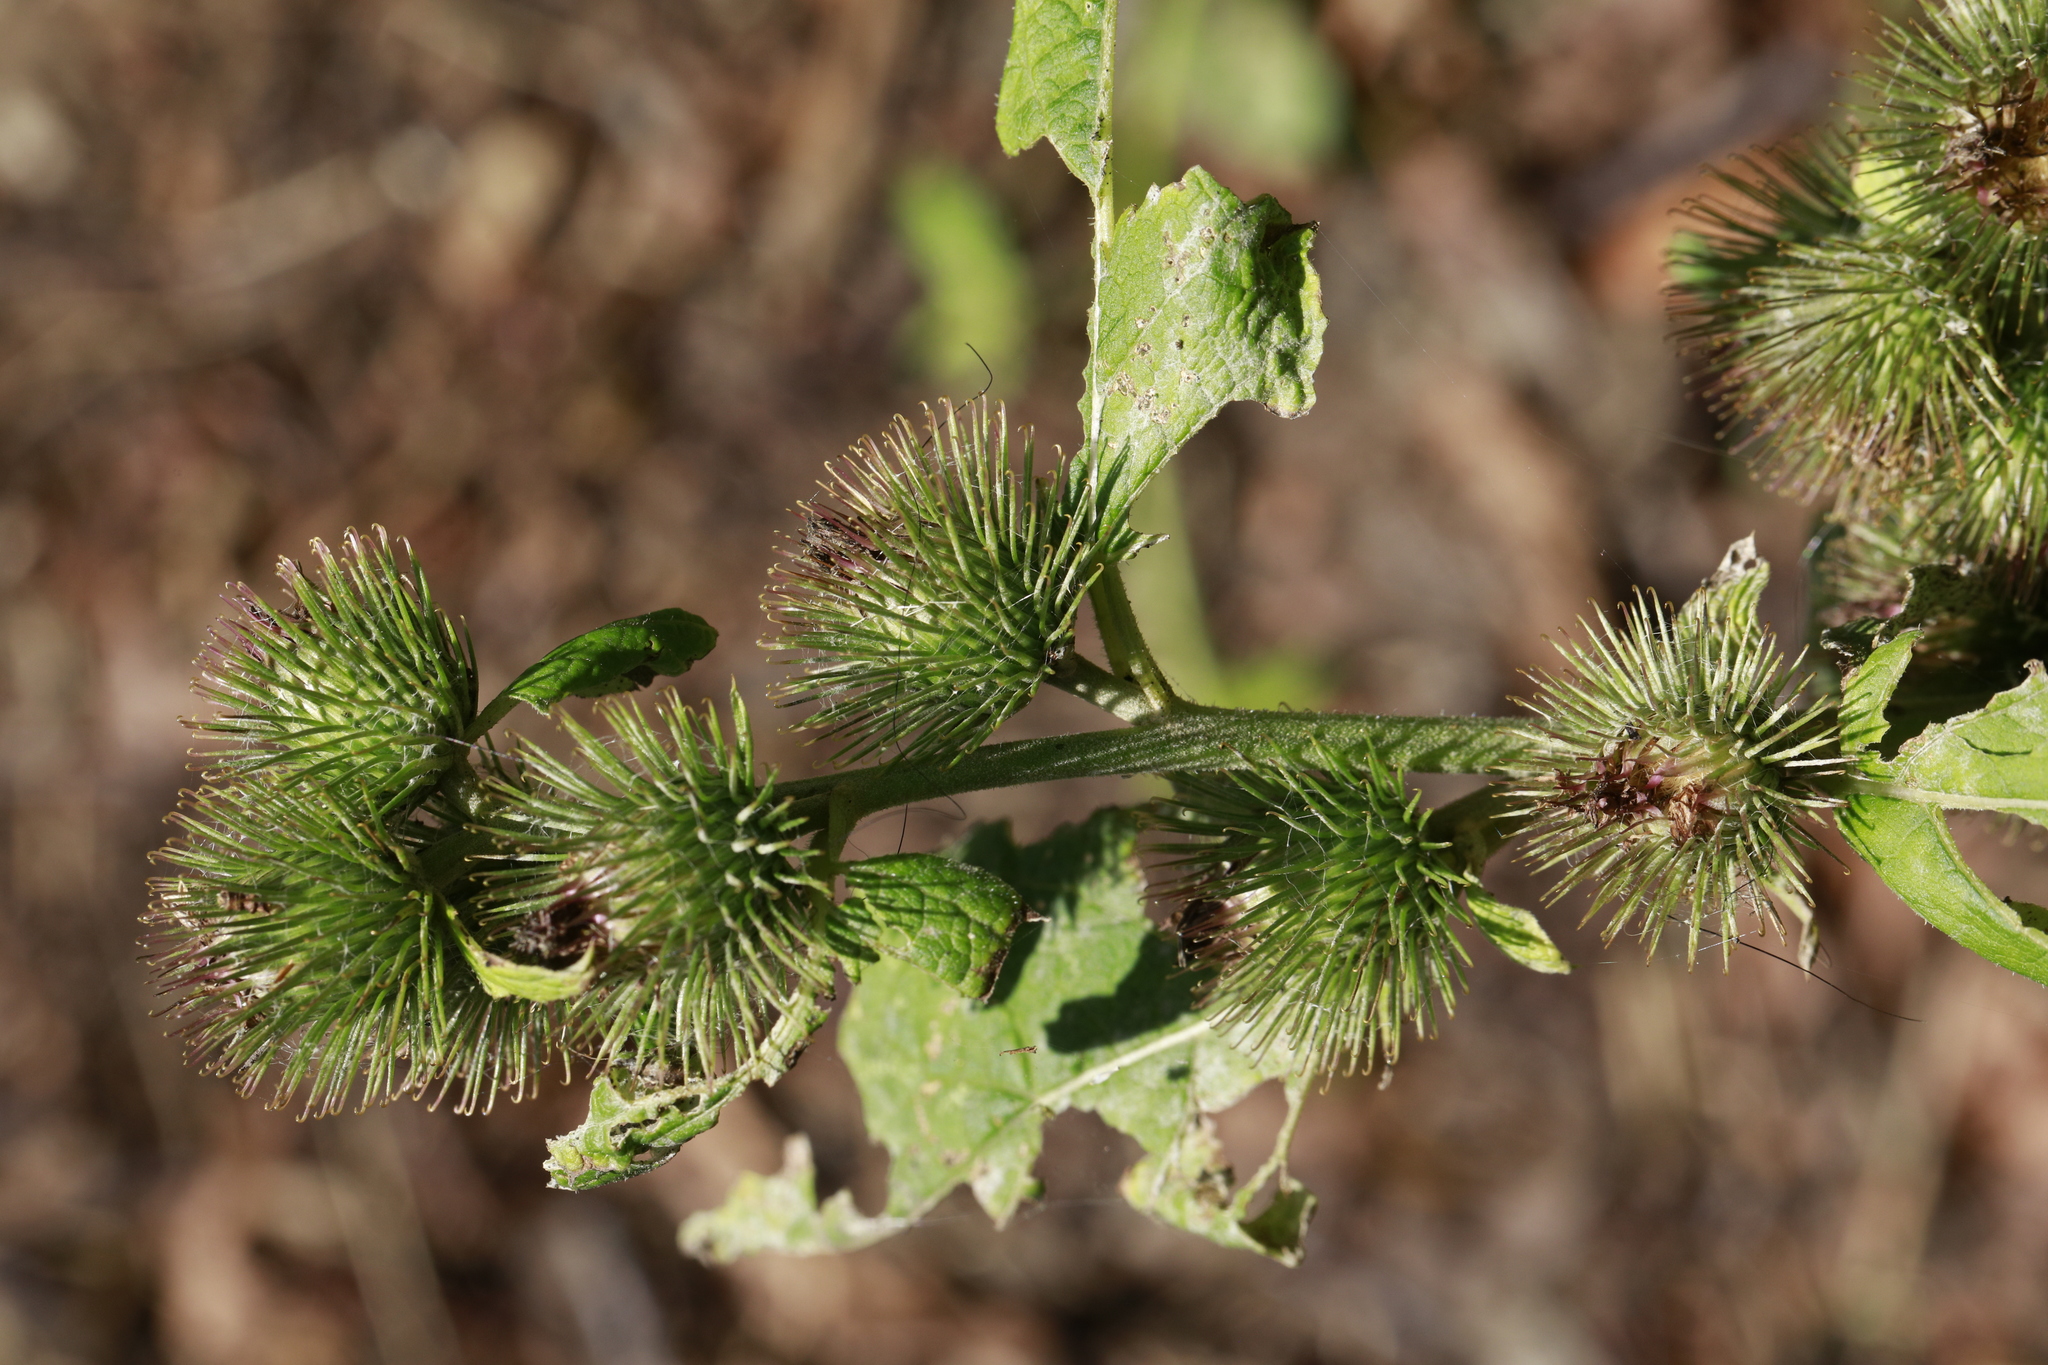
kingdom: Plantae
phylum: Tracheophyta
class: Magnoliopsida
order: Asterales
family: Asteraceae
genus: Arctium
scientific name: Arctium minus
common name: Lesser burdock
